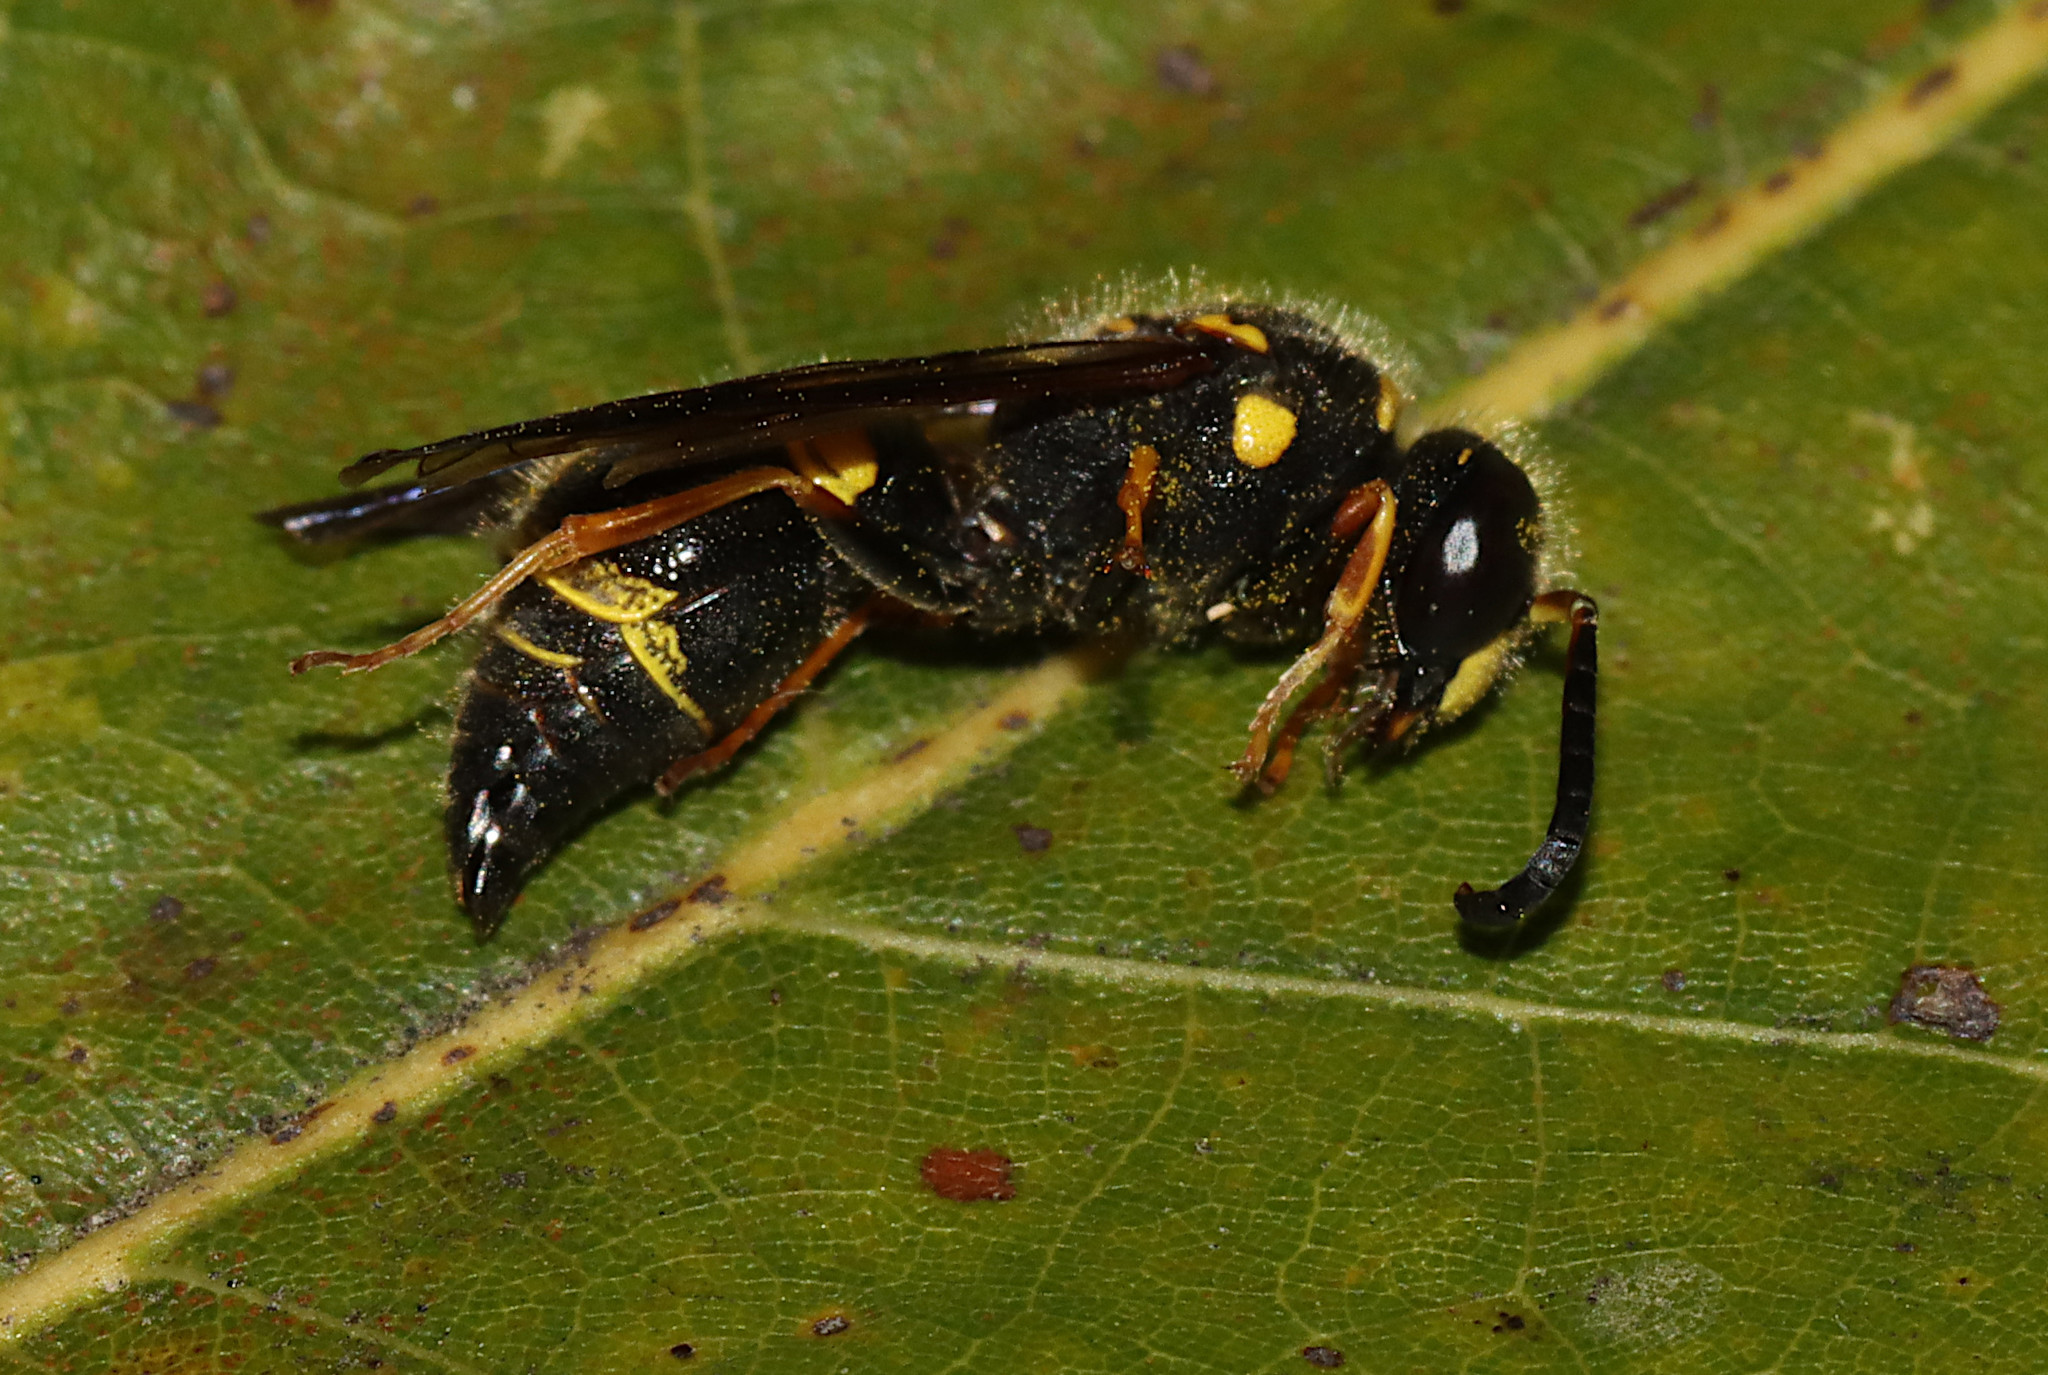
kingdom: Animalia
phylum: Arthropoda
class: Insecta
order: Hymenoptera
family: Vespidae
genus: Ancistrocerus
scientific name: Ancistrocerus campestris
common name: Smiling mason wasp
